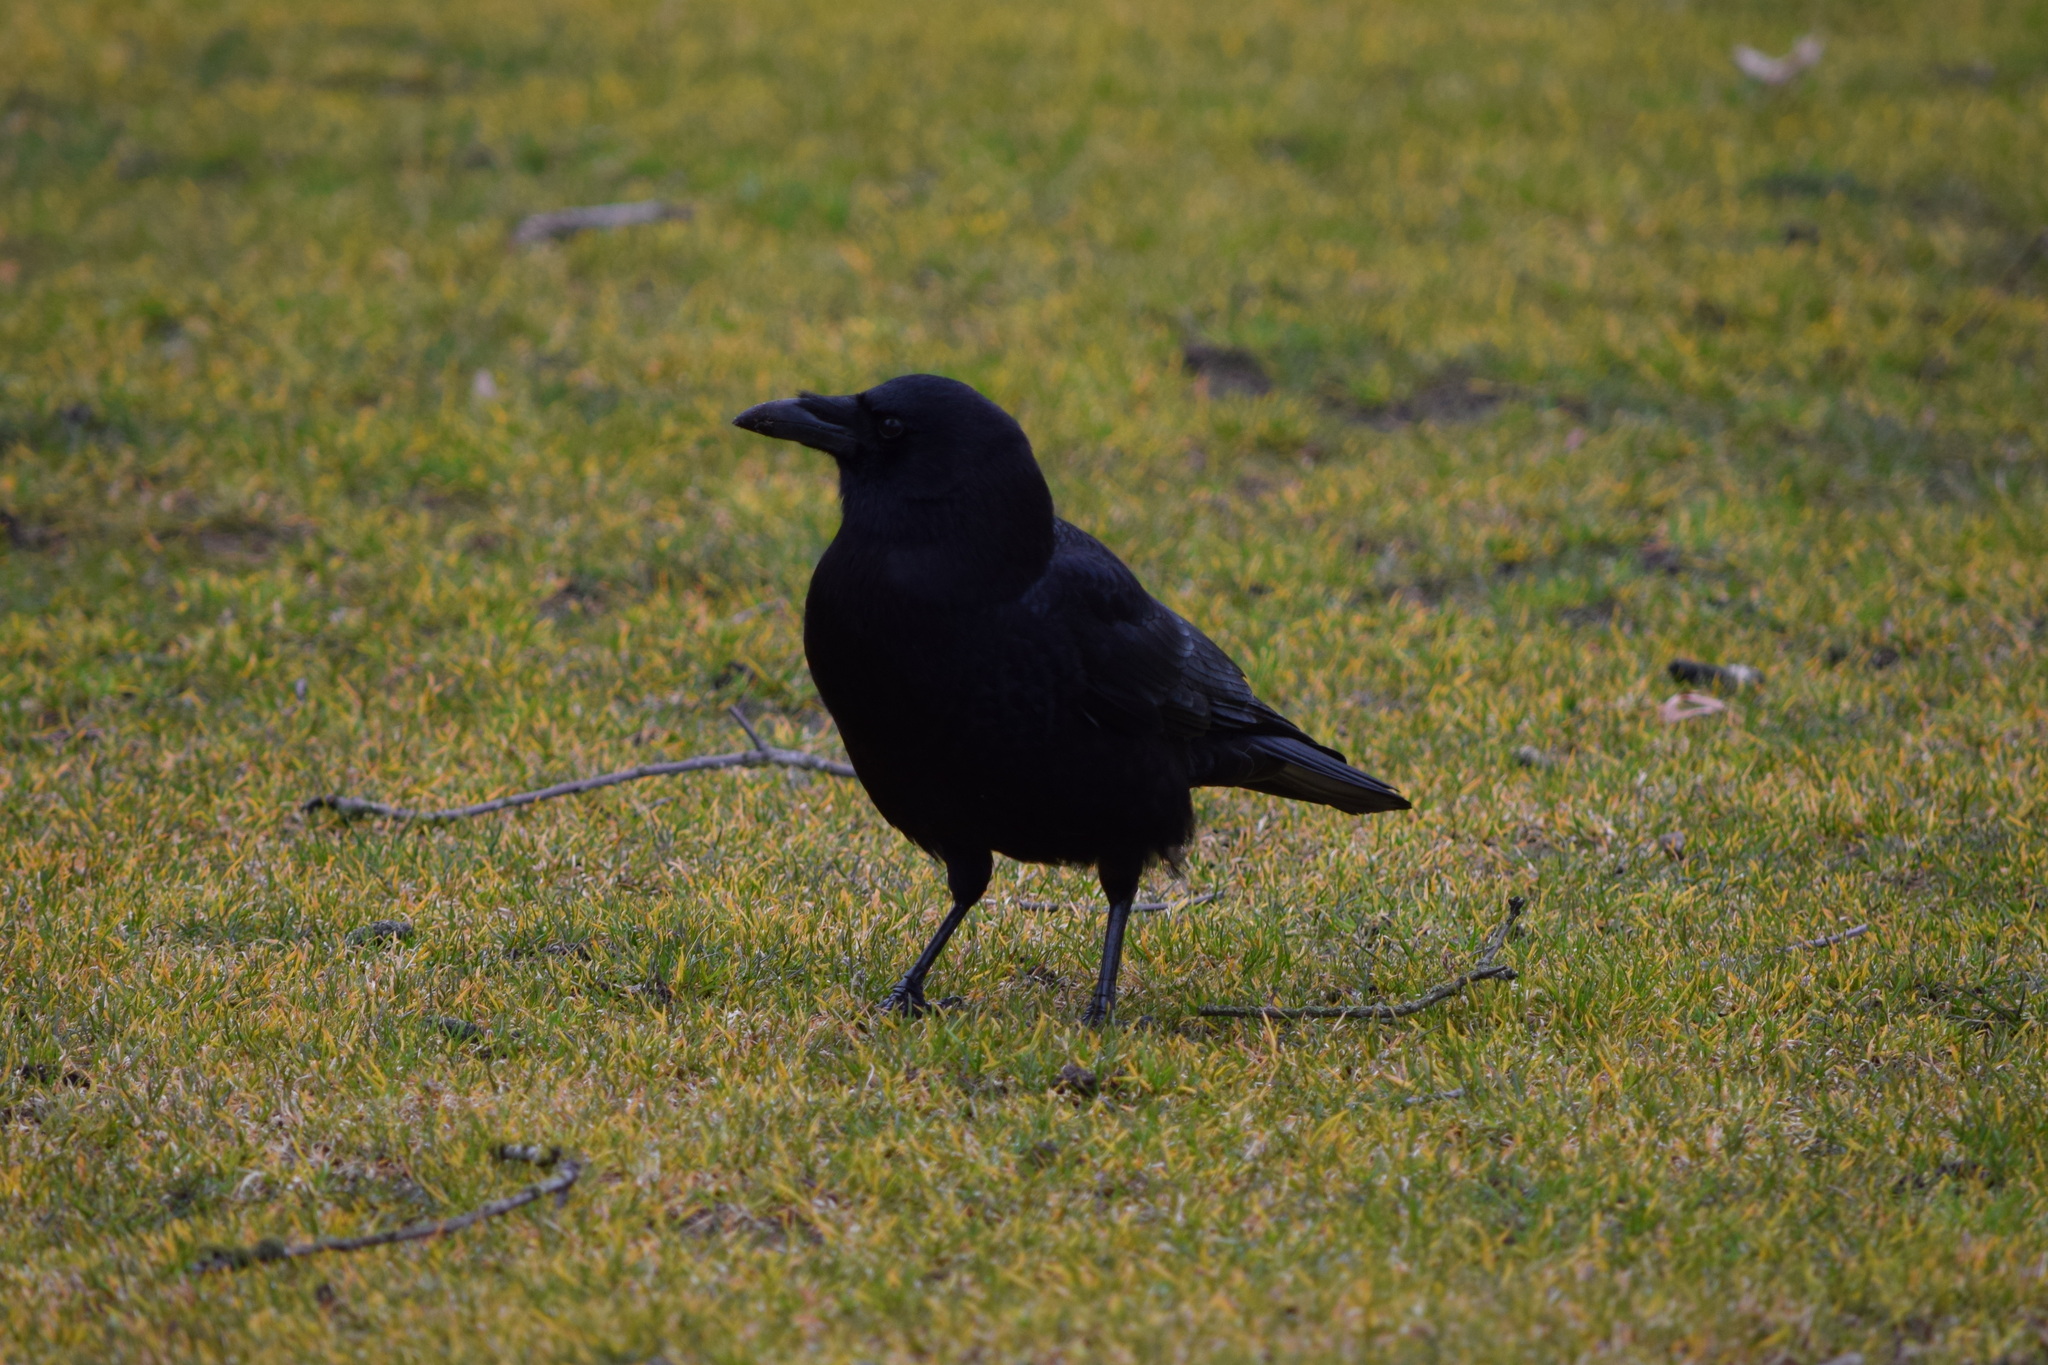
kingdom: Animalia
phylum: Chordata
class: Aves
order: Passeriformes
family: Corvidae
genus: Corvus
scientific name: Corvus brachyrhynchos
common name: American crow
